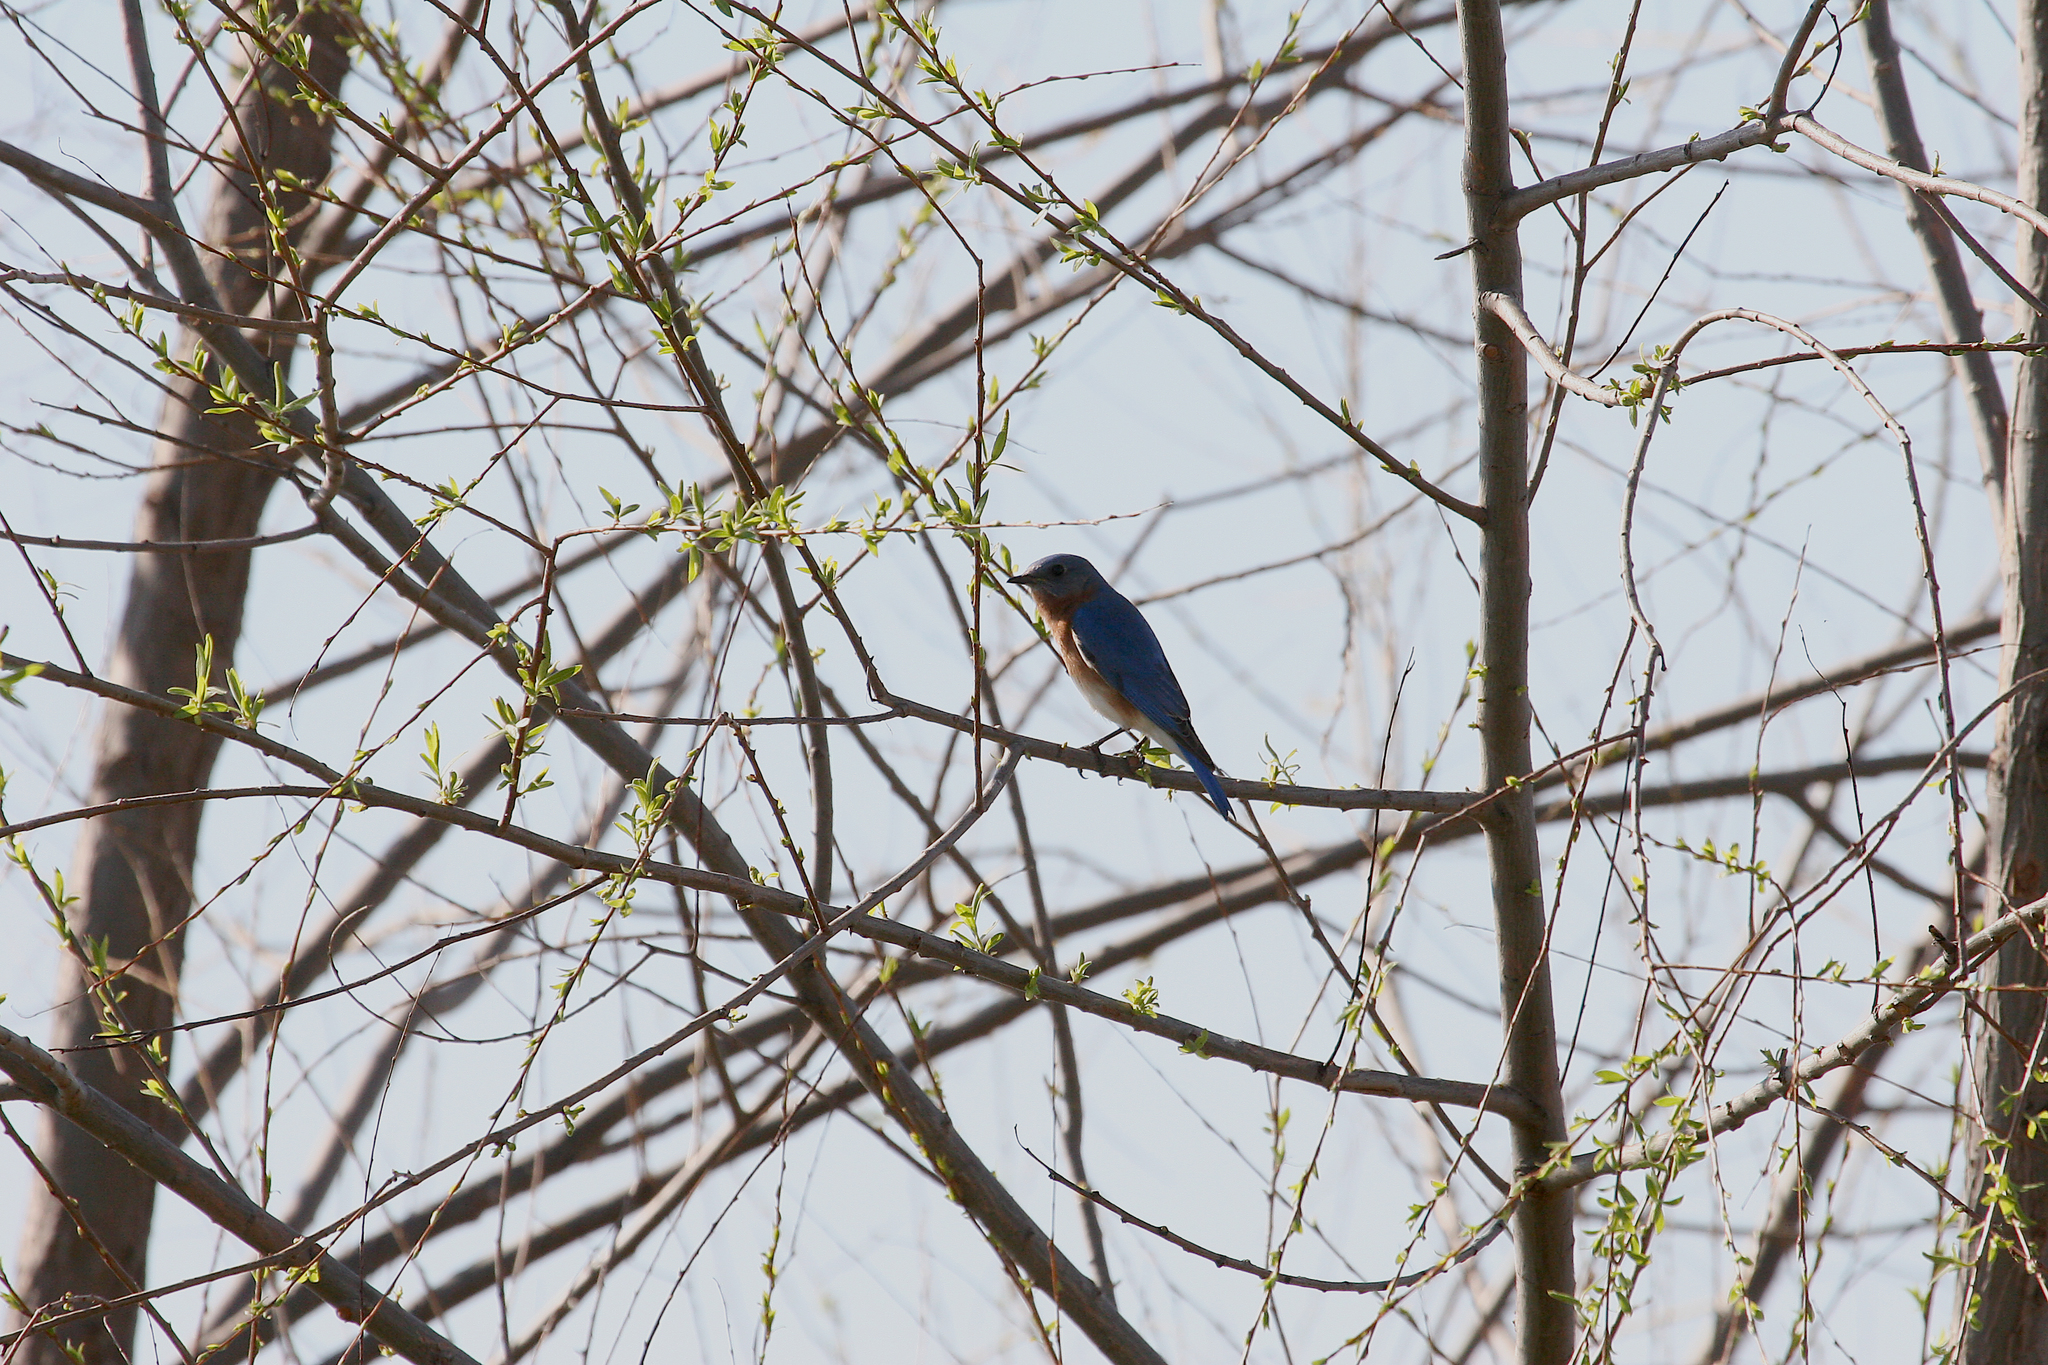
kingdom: Animalia
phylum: Chordata
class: Aves
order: Passeriformes
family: Turdidae
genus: Sialia
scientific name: Sialia sialis
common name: Eastern bluebird
